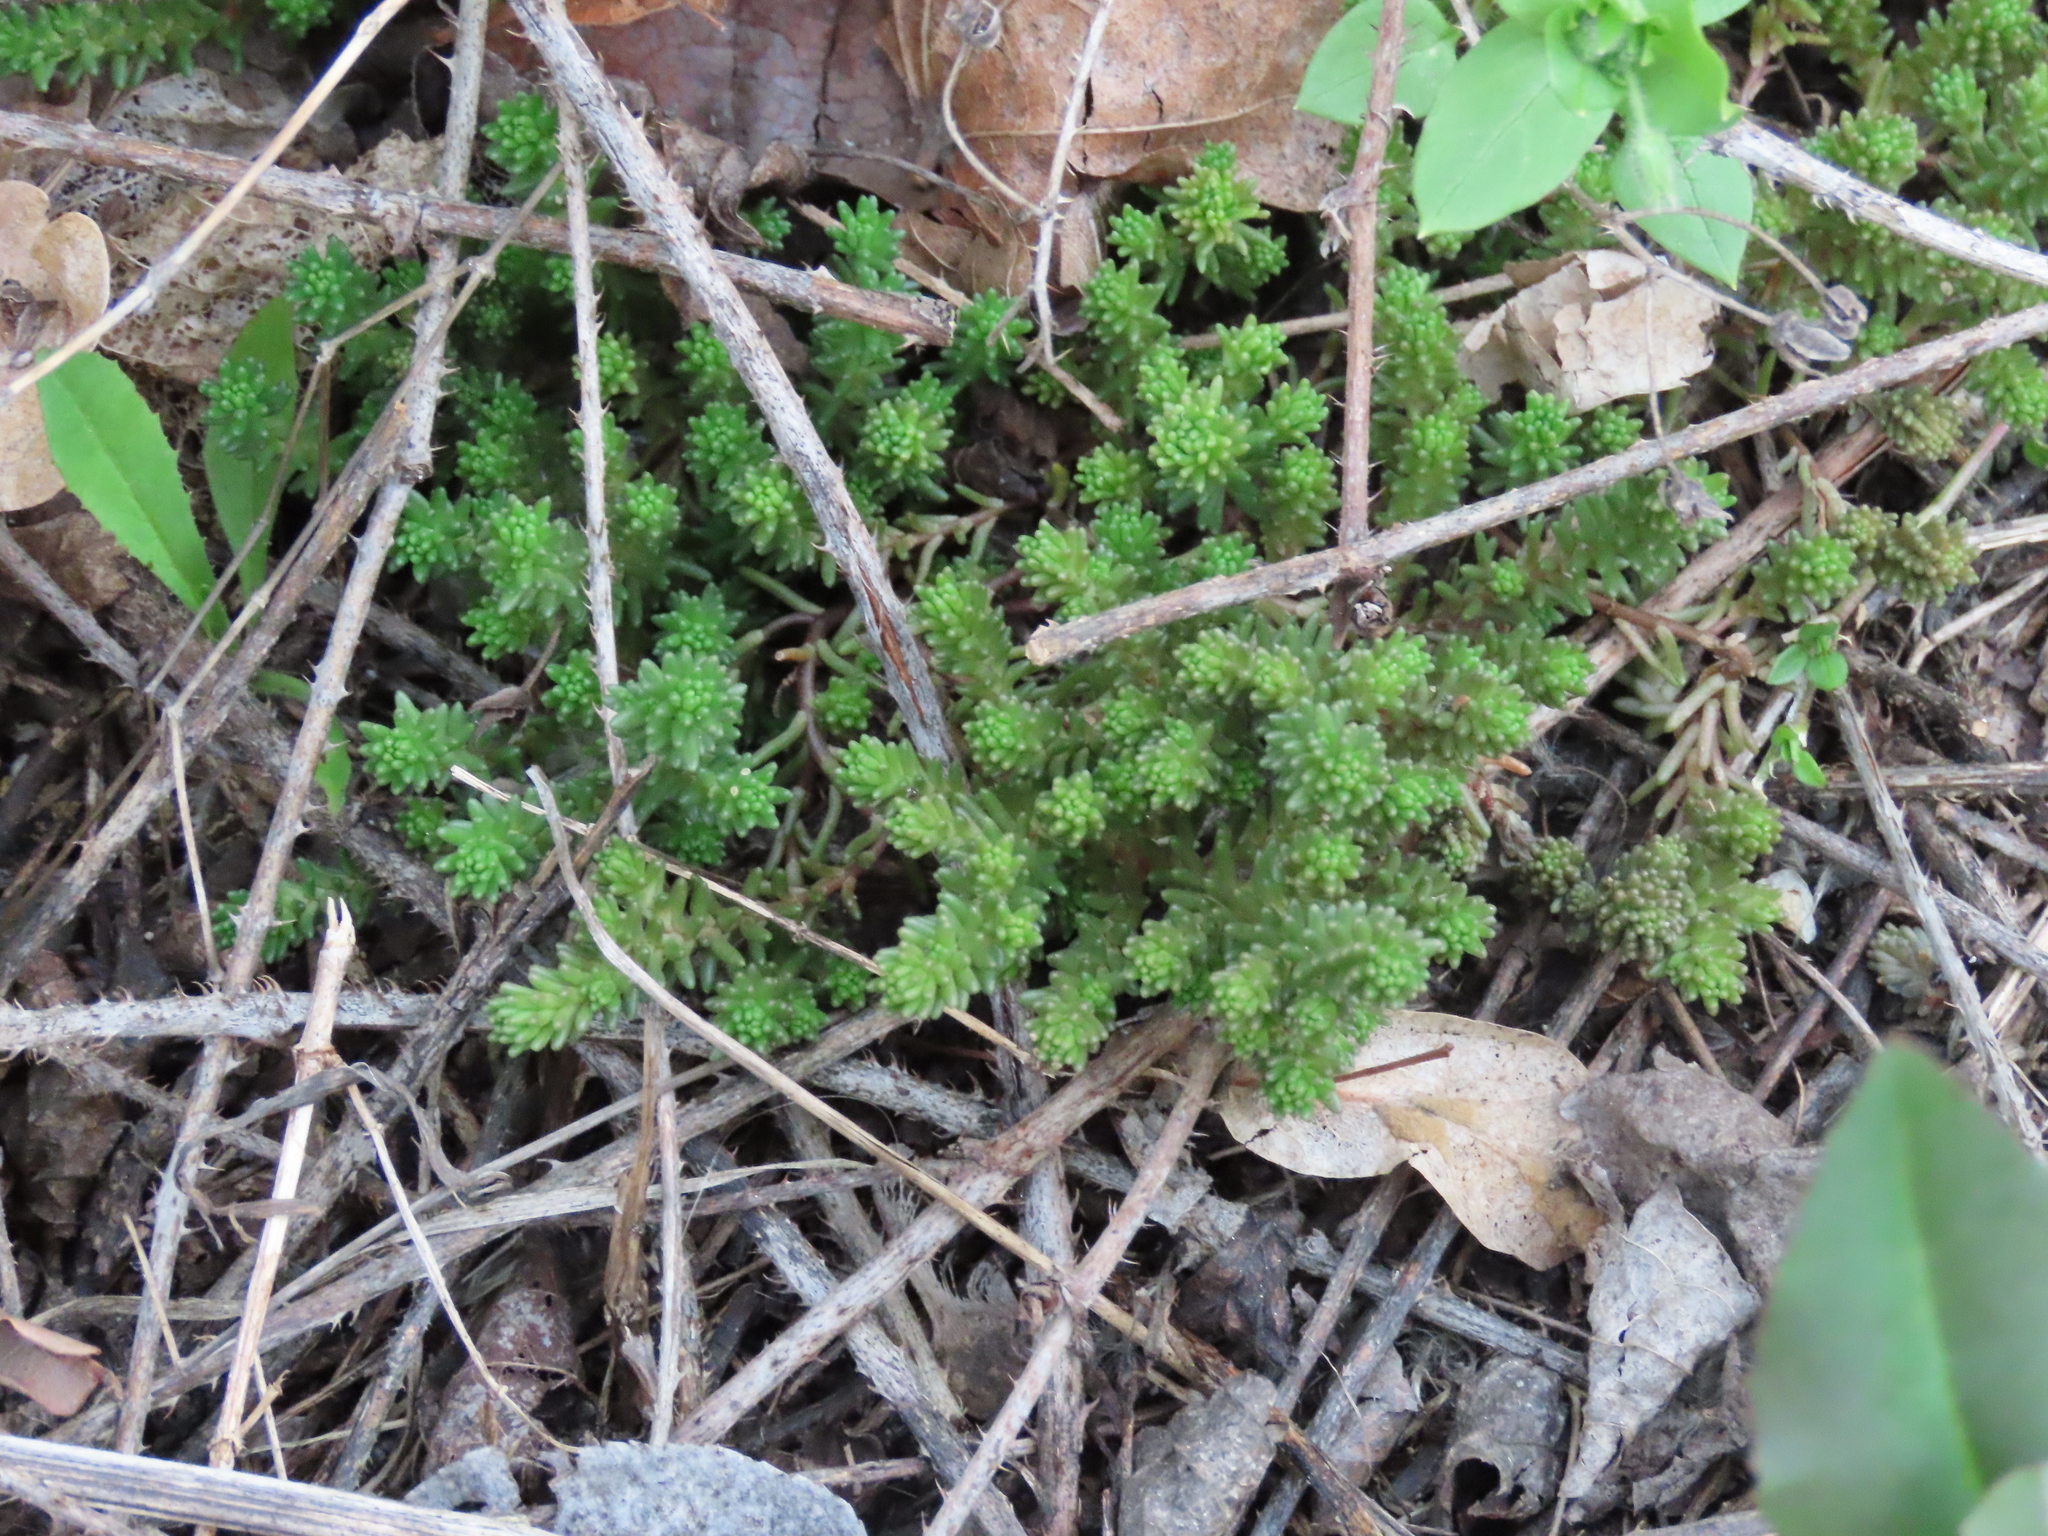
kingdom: Plantae
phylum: Tracheophyta
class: Magnoliopsida
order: Saxifragales
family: Crassulaceae
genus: Sedum
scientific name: Sedum sexangulare
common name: Tasteless stonecrop
